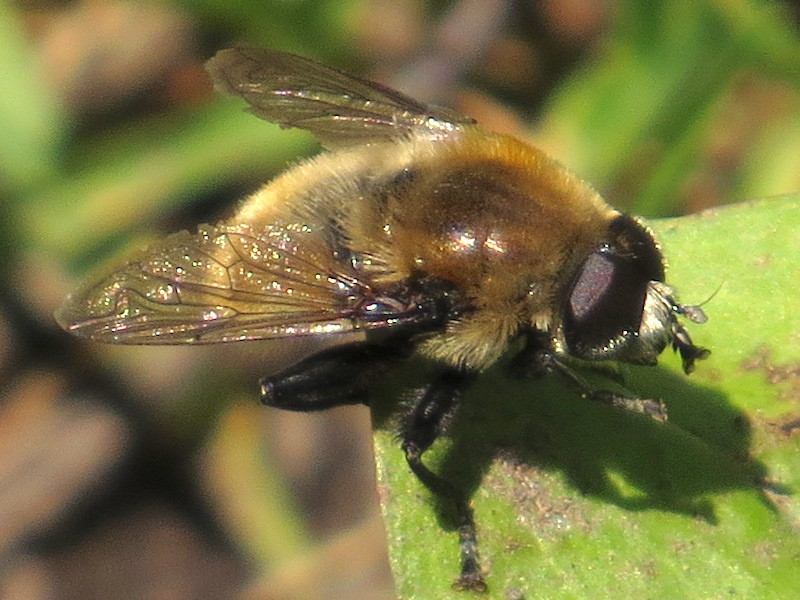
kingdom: Animalia
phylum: Arthropoda
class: Insecta
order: Diptera
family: Syrphidae
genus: Merodon
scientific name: Merodon equestris
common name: Greater bulb-fly
